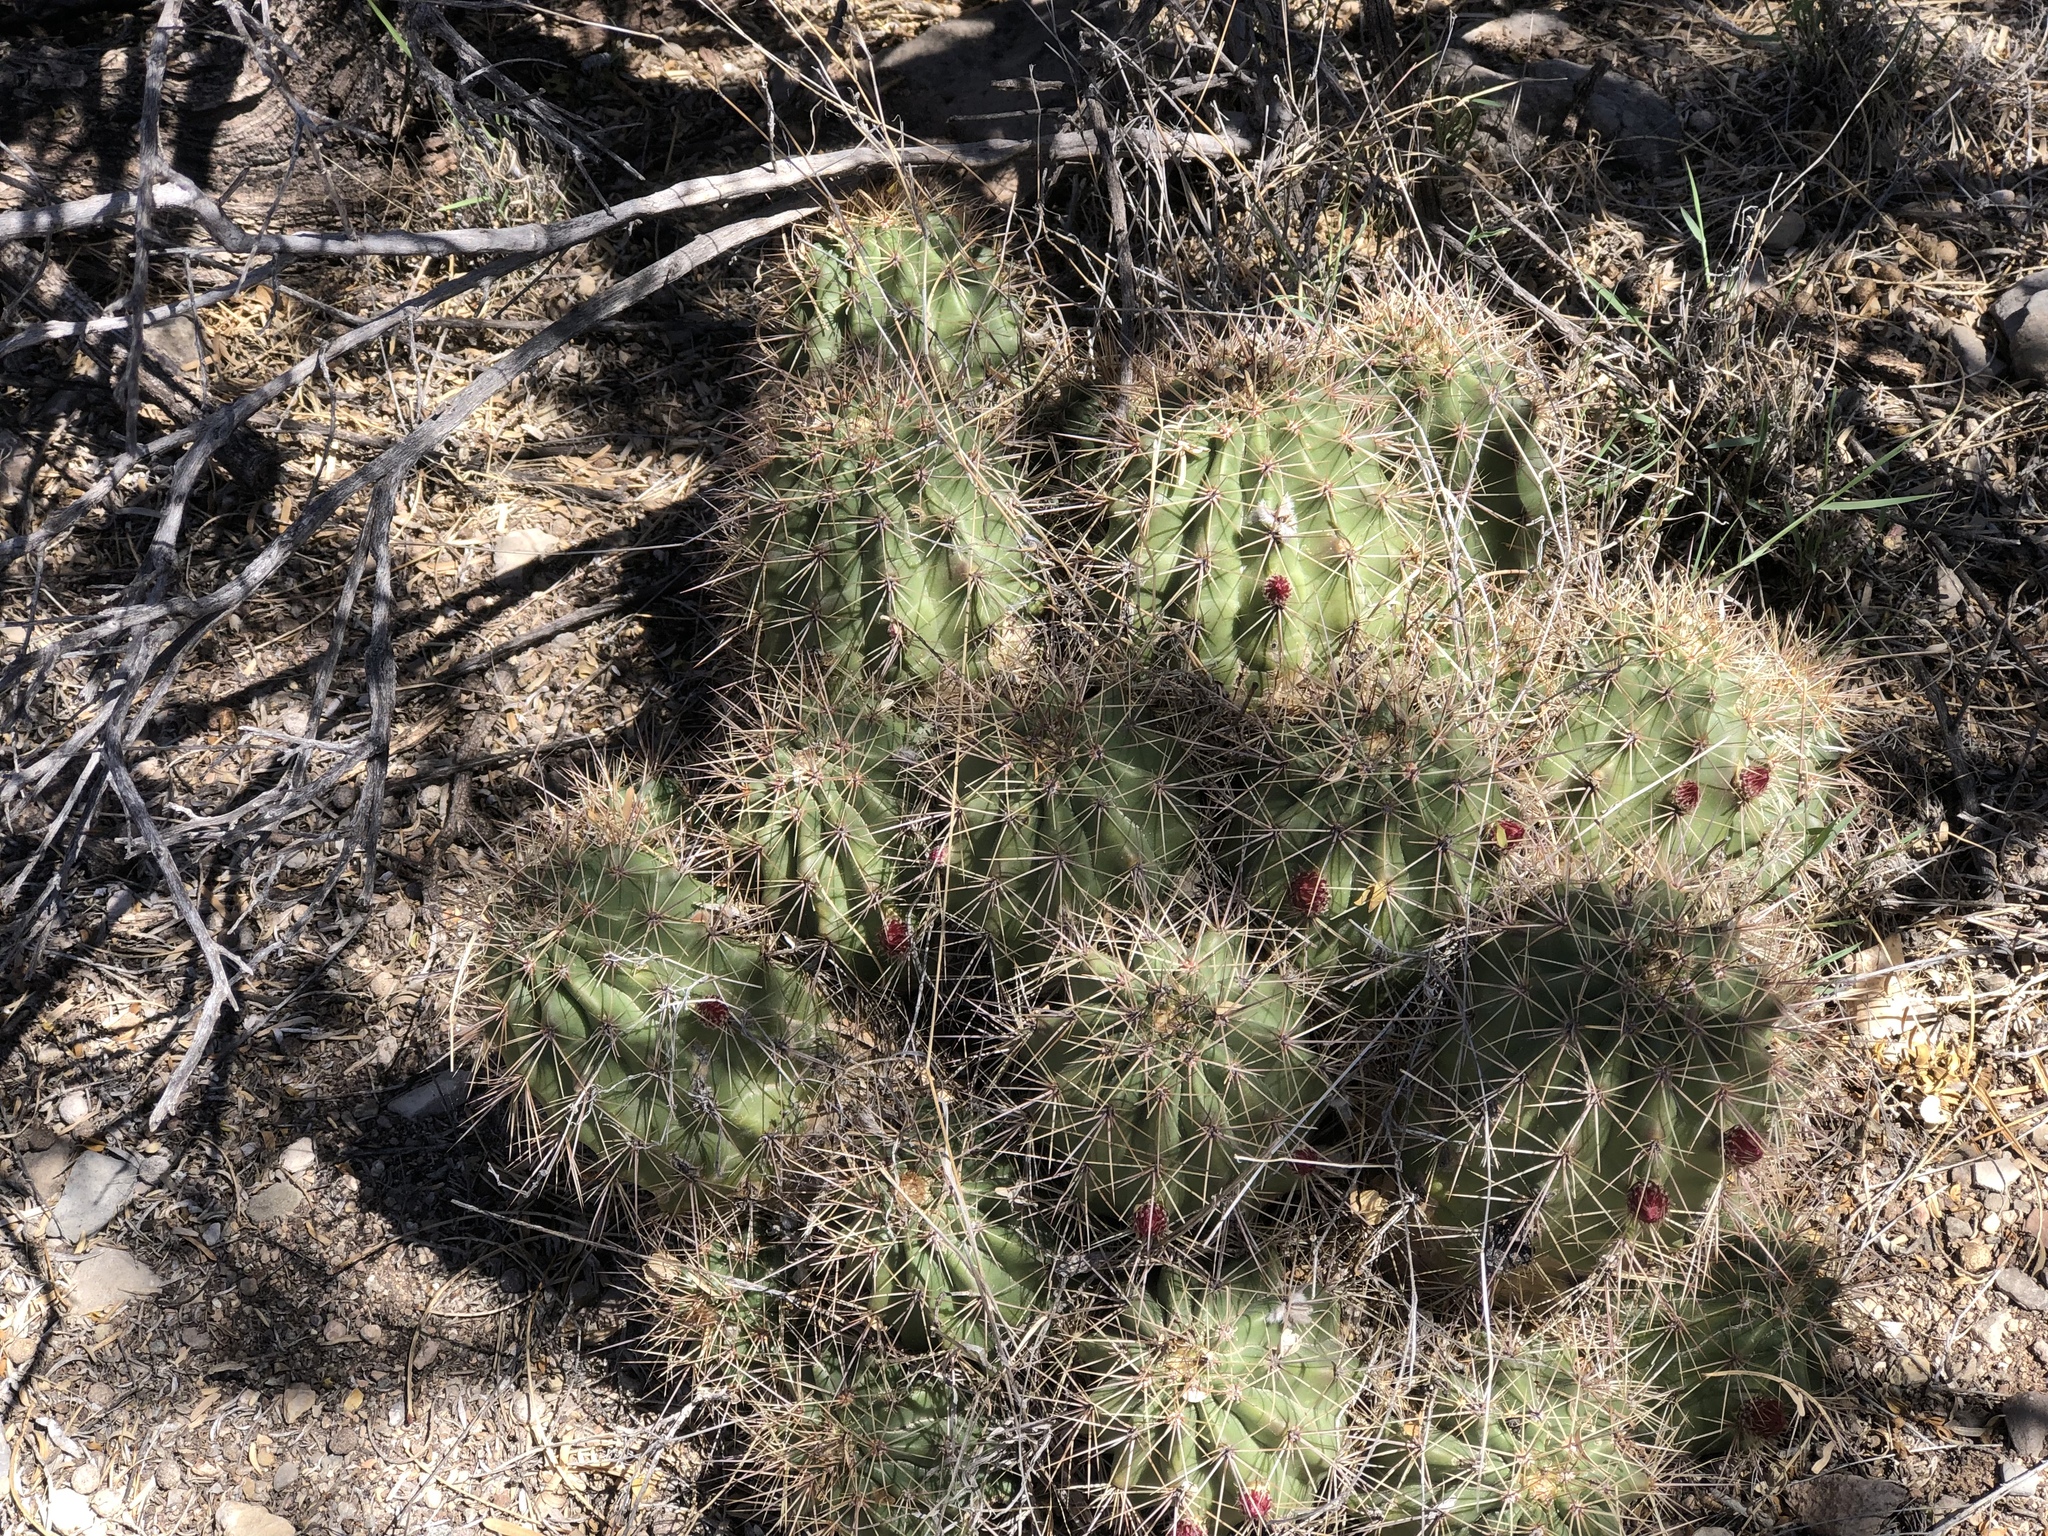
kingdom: Plantae
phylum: Tracheophyta
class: Magnoliopsida
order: Caryophyllales
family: Cactaceae
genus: Echinocereus
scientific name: Echinocereus coccineus
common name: Scarlet hedgehog cactus
